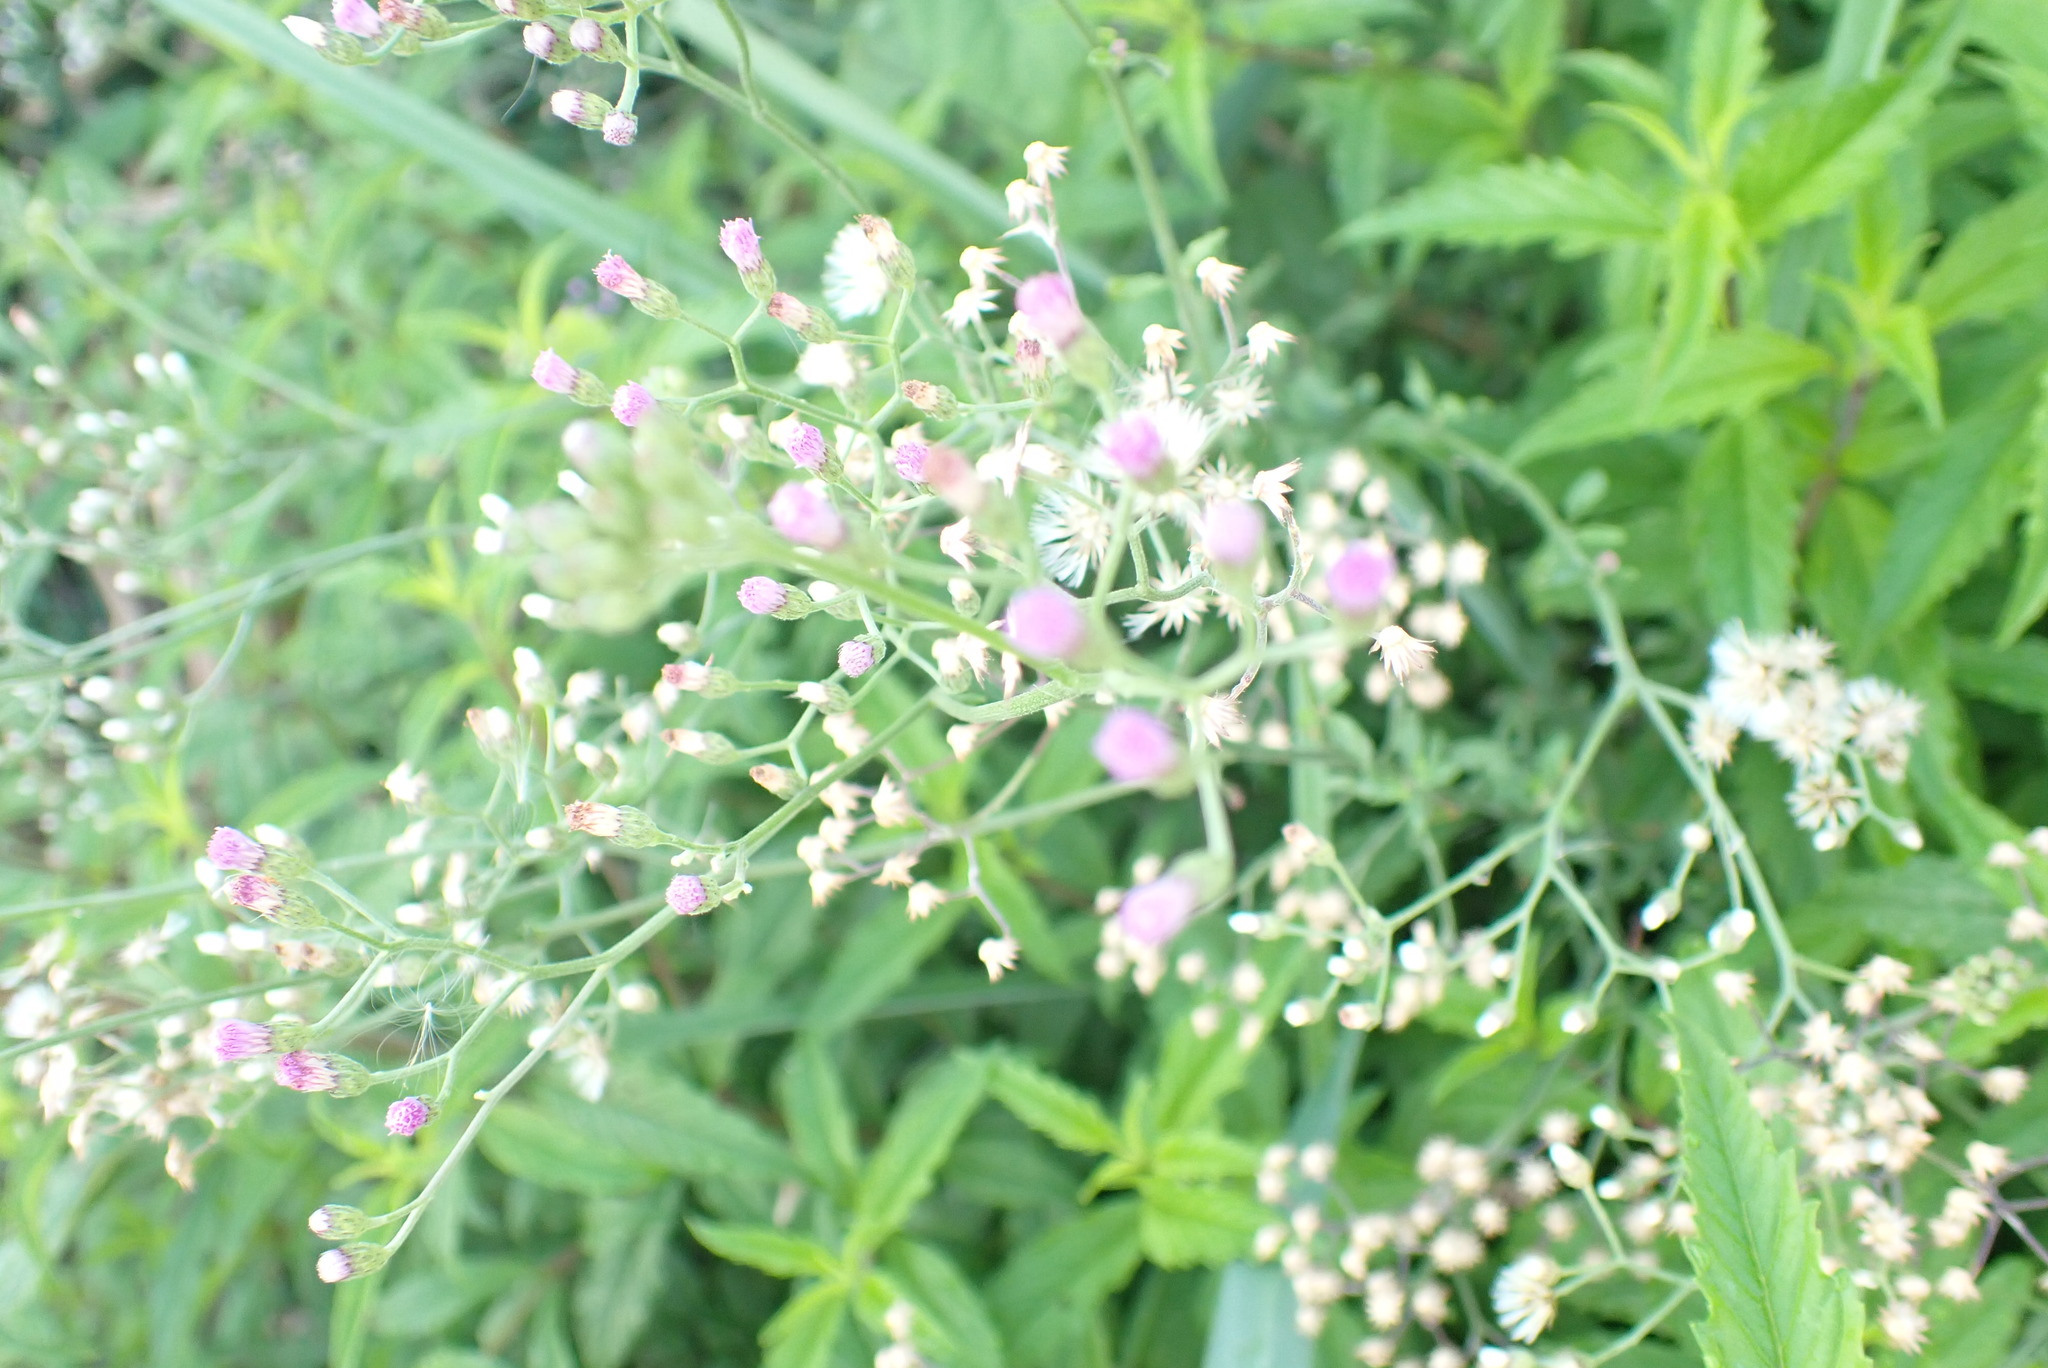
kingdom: Plantae
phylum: Tracheophyta
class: Magnoliopsida
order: Asterales
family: Asteraceae
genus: Cyanthillium
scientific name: Cyanthillium cinereum
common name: Little ironweed
